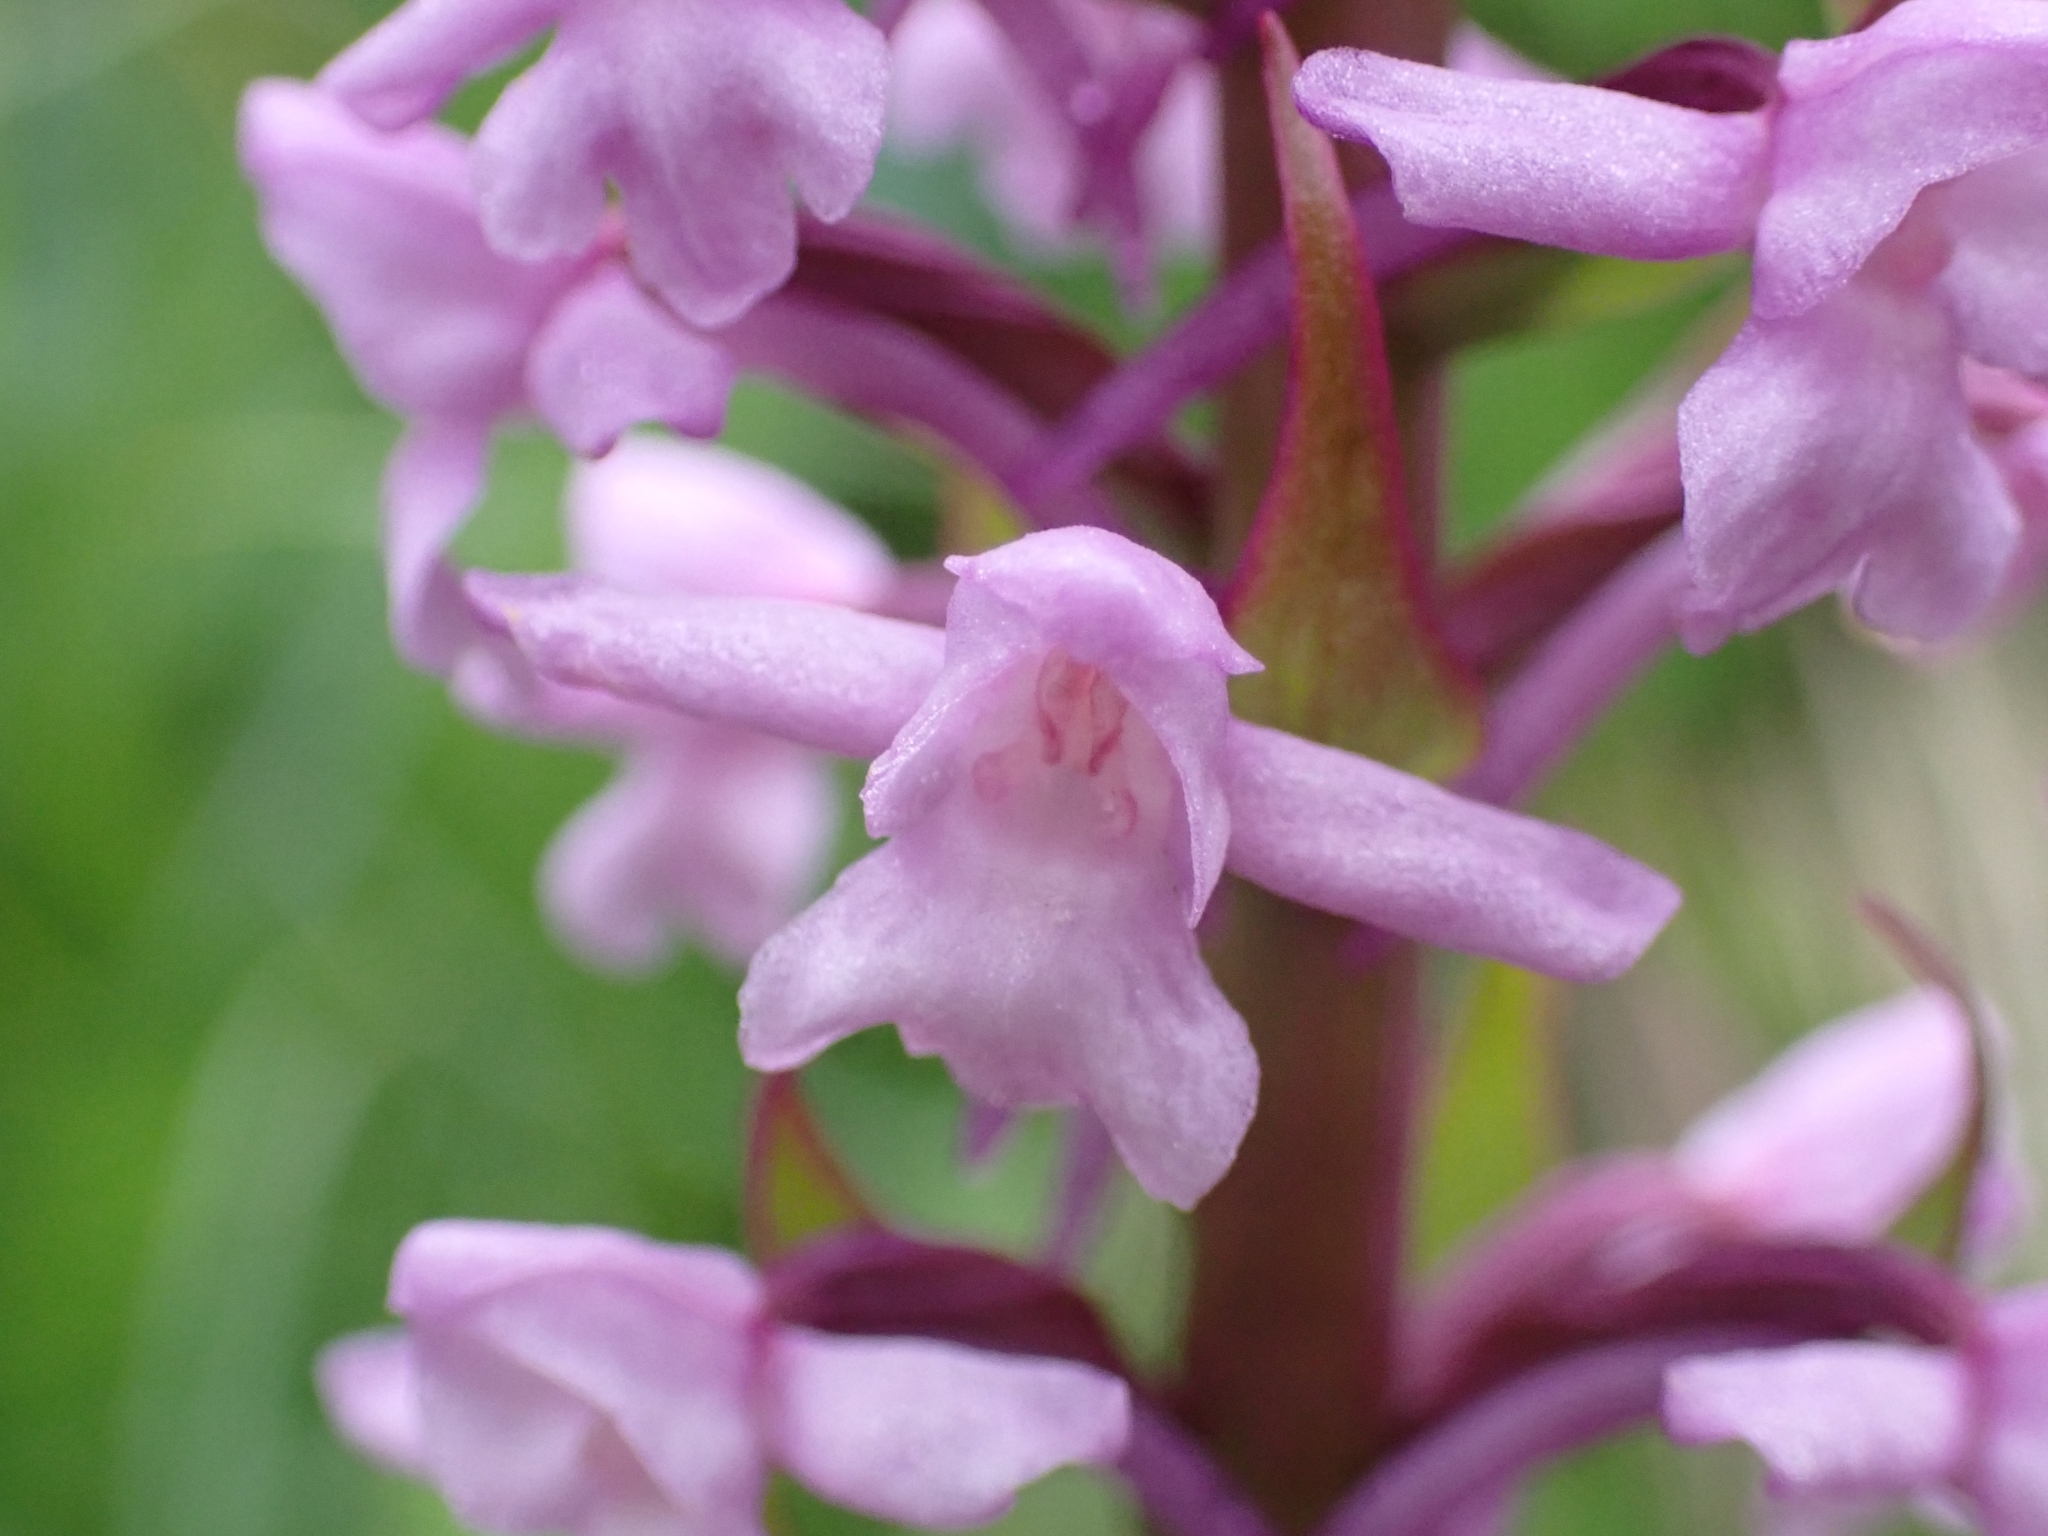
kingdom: Plantae
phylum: Tracheophyta
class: Liliopsida
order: Asparagales
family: Orchidaceae
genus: Gymnadenia
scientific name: Gymnadenia conopsea
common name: Fragrant orchid
